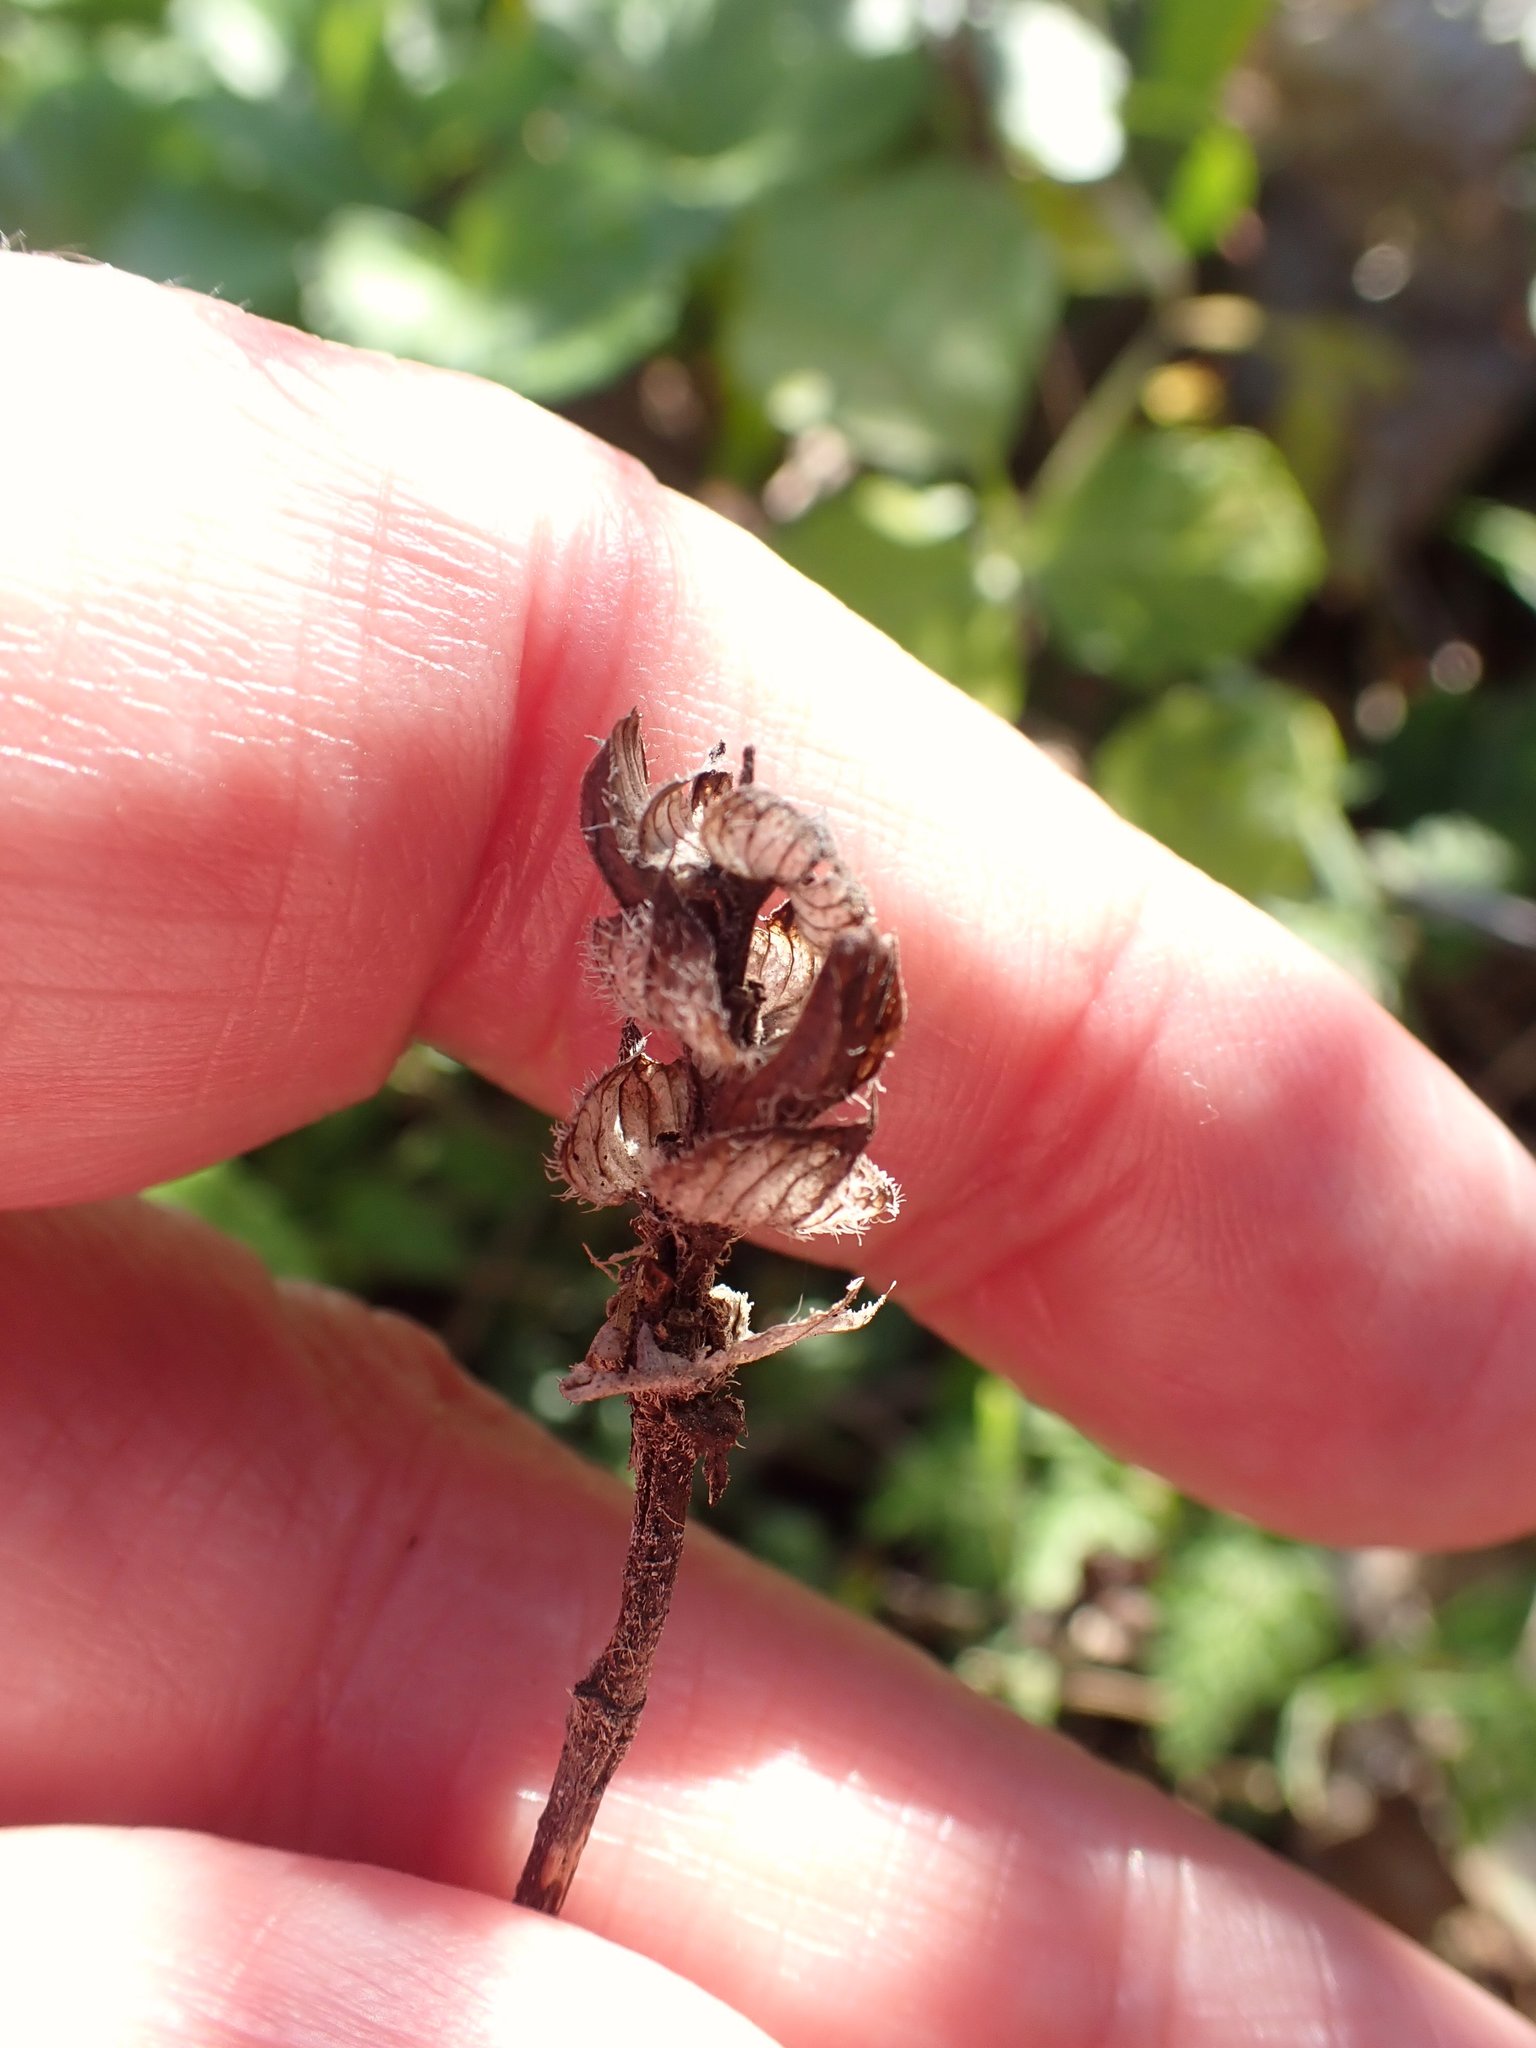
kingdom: Plantae
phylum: Tracheophyta
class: Magnoliopsida
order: Lamiales
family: Lamiaceae
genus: Prunella
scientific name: Prunella vulgaris
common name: Heal-all
